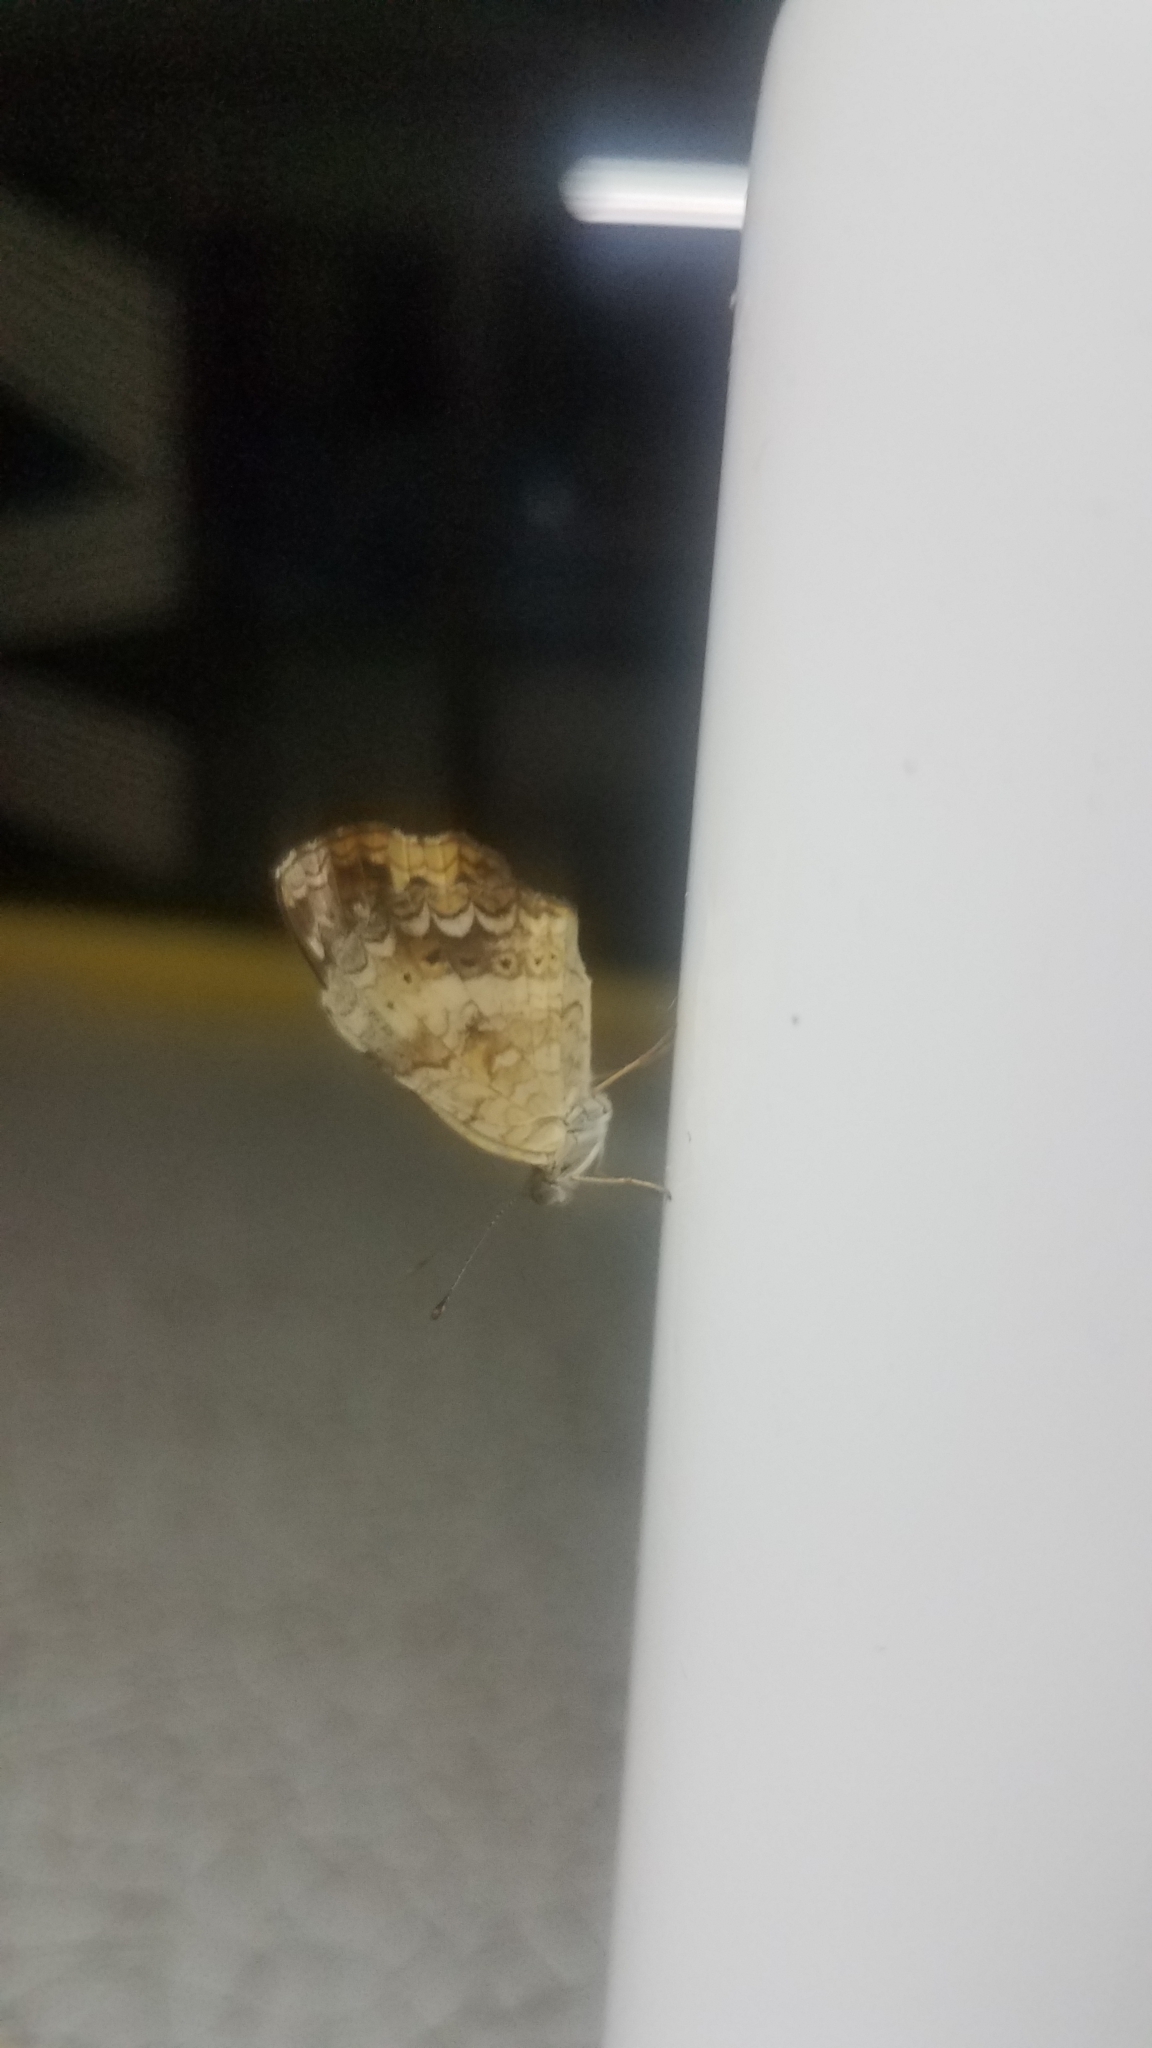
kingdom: Animalia
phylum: Arthropoda
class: Insecta
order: Lepidoptera
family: Nymphalidae
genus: Anthanassa
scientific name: Anthanassa tulcis
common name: Pale-banded crescent
